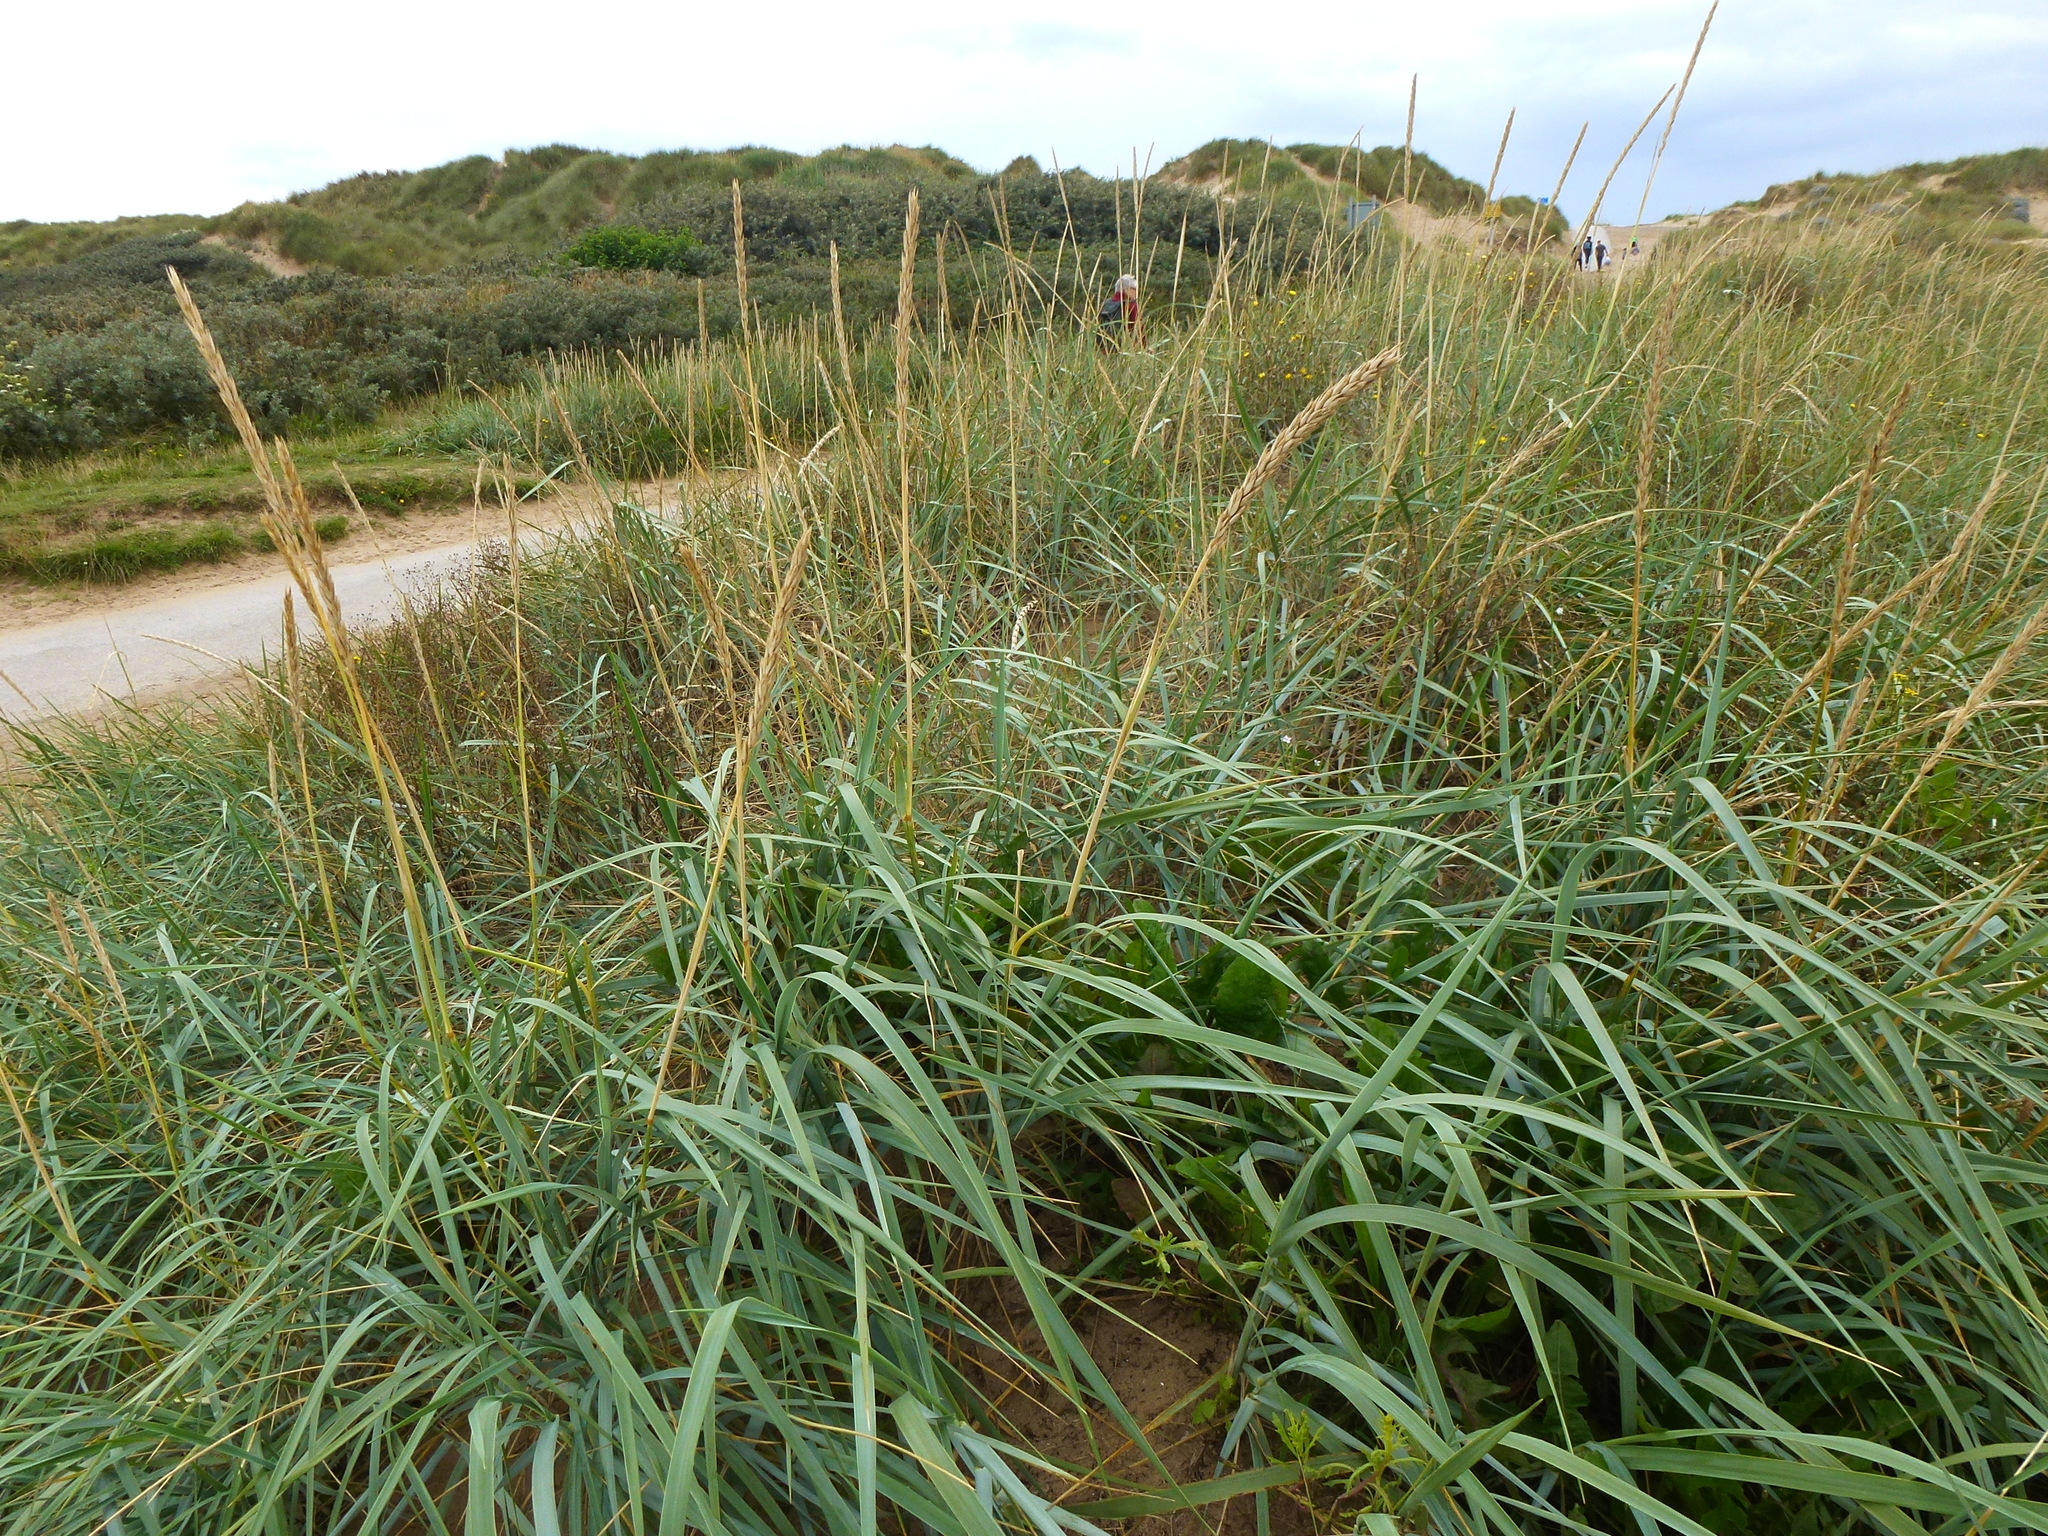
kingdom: Plantae
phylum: Tracheophyta
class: Liliopsida
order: Poales
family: Poaceae
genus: Leymus
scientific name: Leymus arenarius
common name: Lyme-grass
